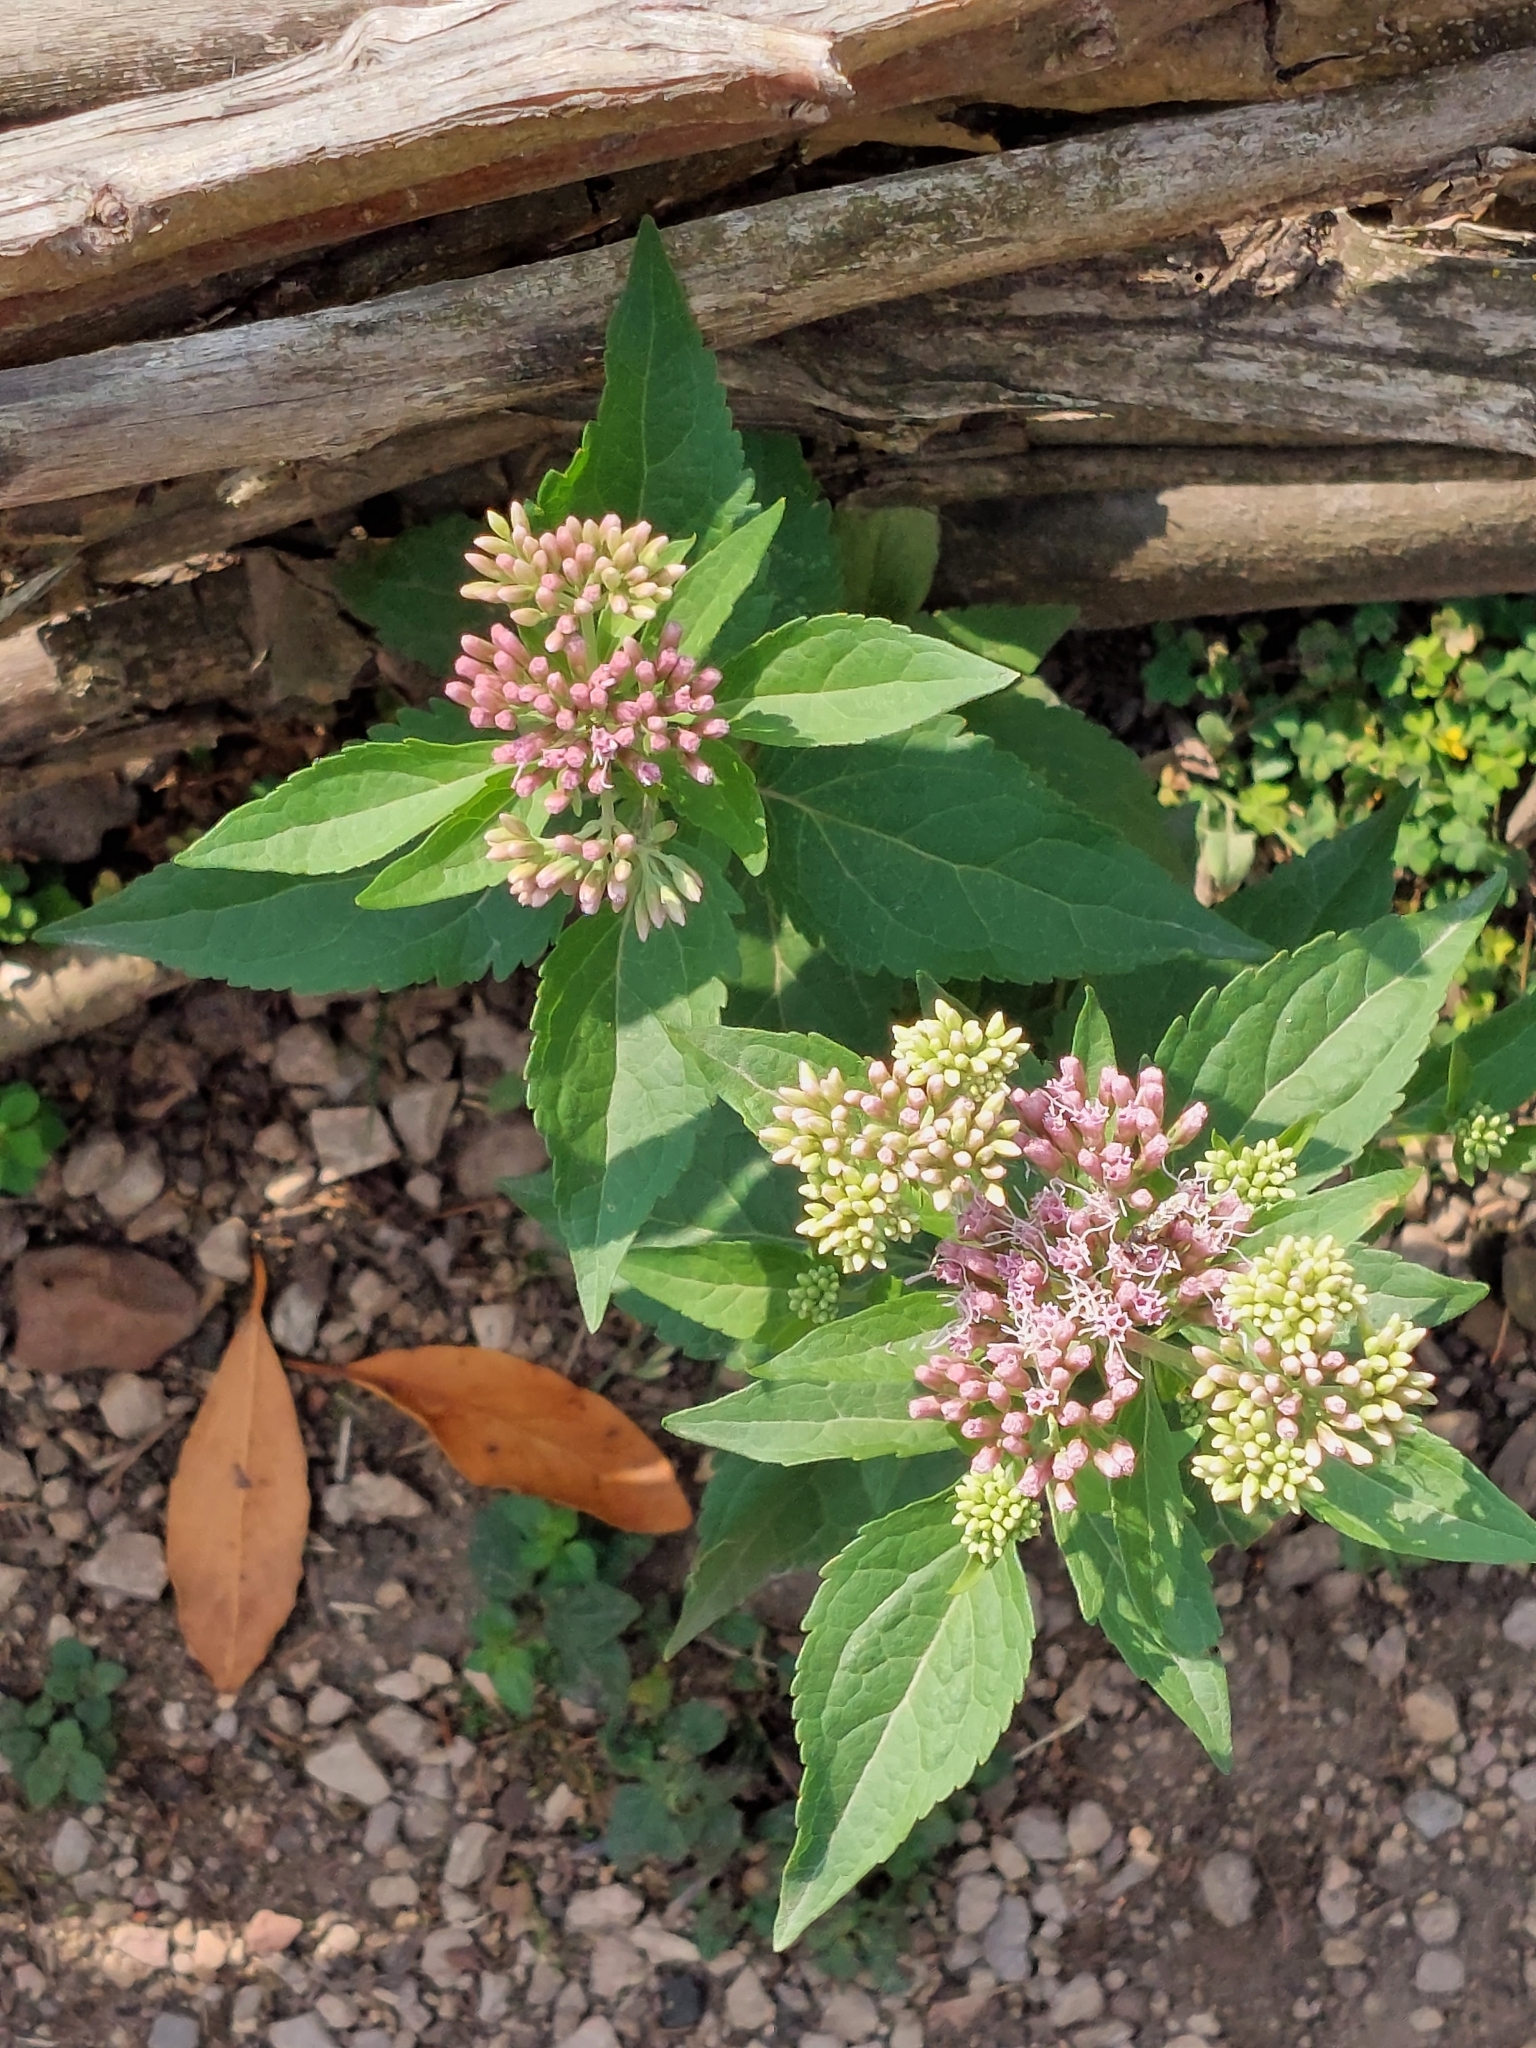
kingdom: Plantae
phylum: Tracheophyta
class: Magnoliopsida
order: Asterales
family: Asteraceae
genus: Eupatorium
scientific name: Eupatorium cannabinum
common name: Hemp-agrimony
